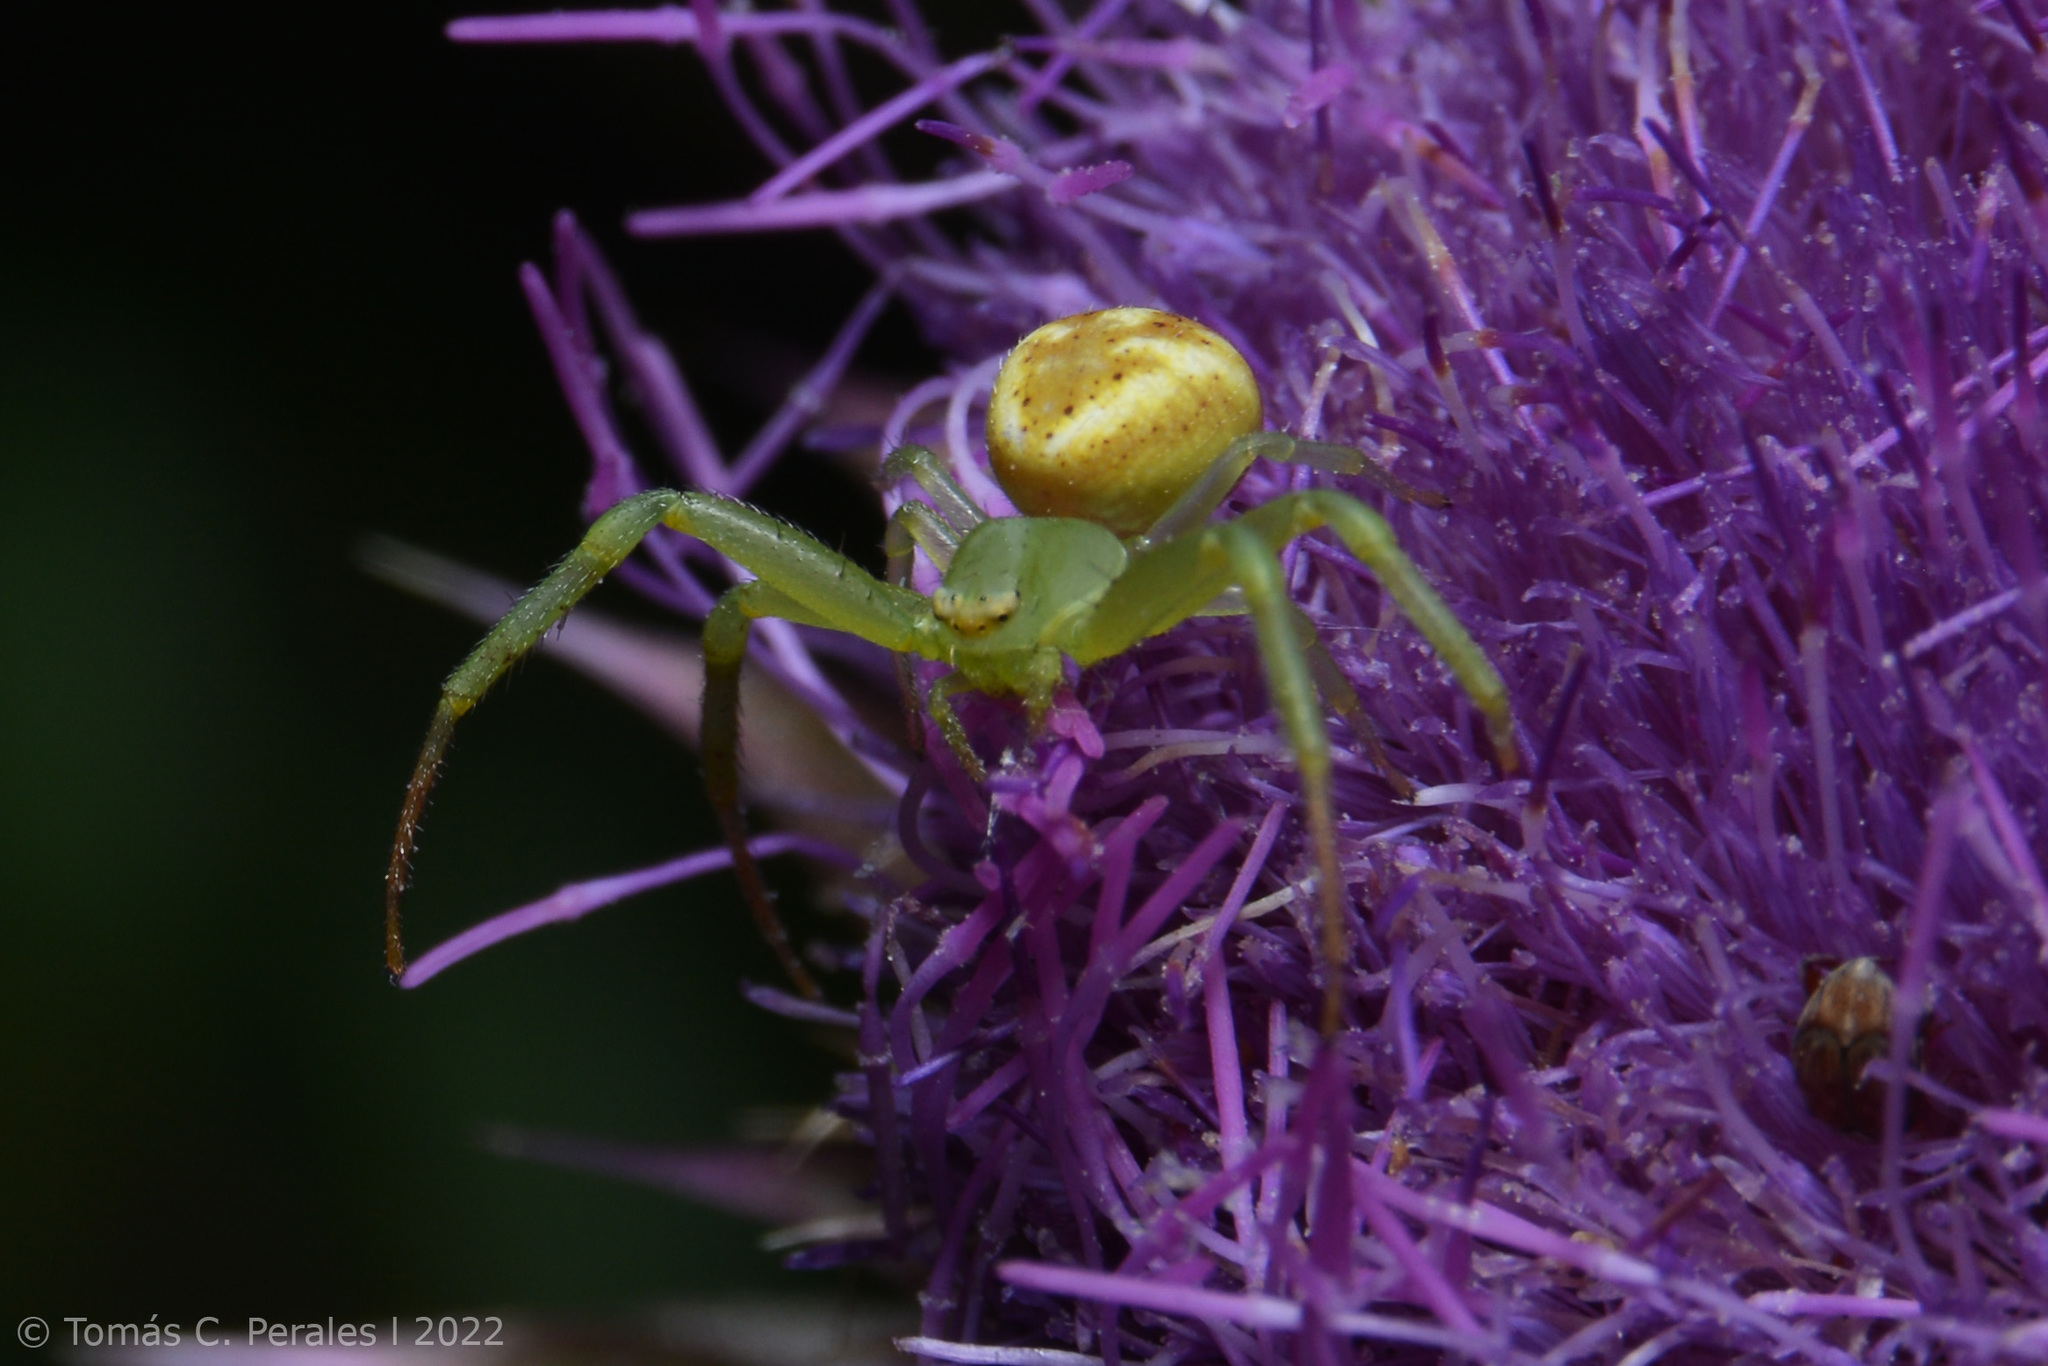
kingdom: Animalia
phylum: Arthropoda
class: Arachnida
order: Araneae
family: Thomisidae
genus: Misumenops
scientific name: Misumenops
